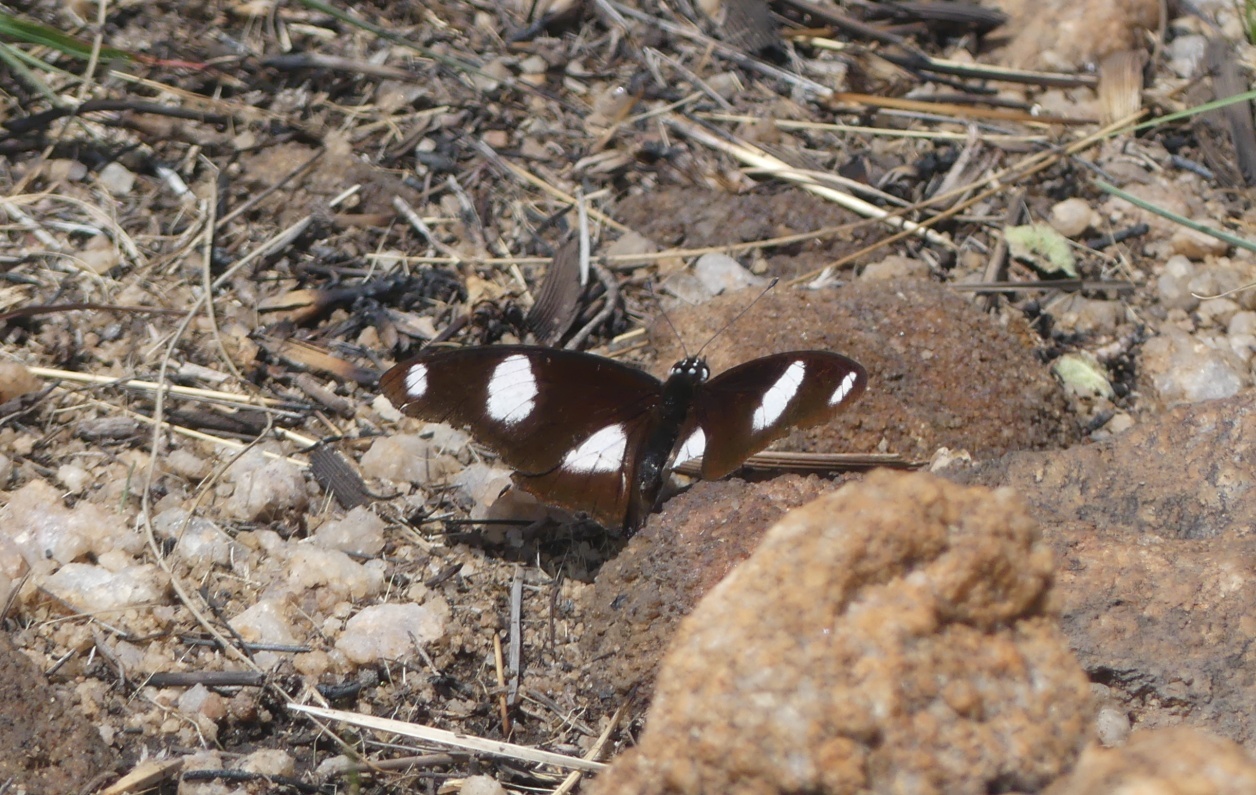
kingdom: Animalia
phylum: Arthropoda
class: Insecta
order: Lepidoptera
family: Nymphalidae
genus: Hypolimnas
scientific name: Hypolimnas misippus
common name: False plain tiger
